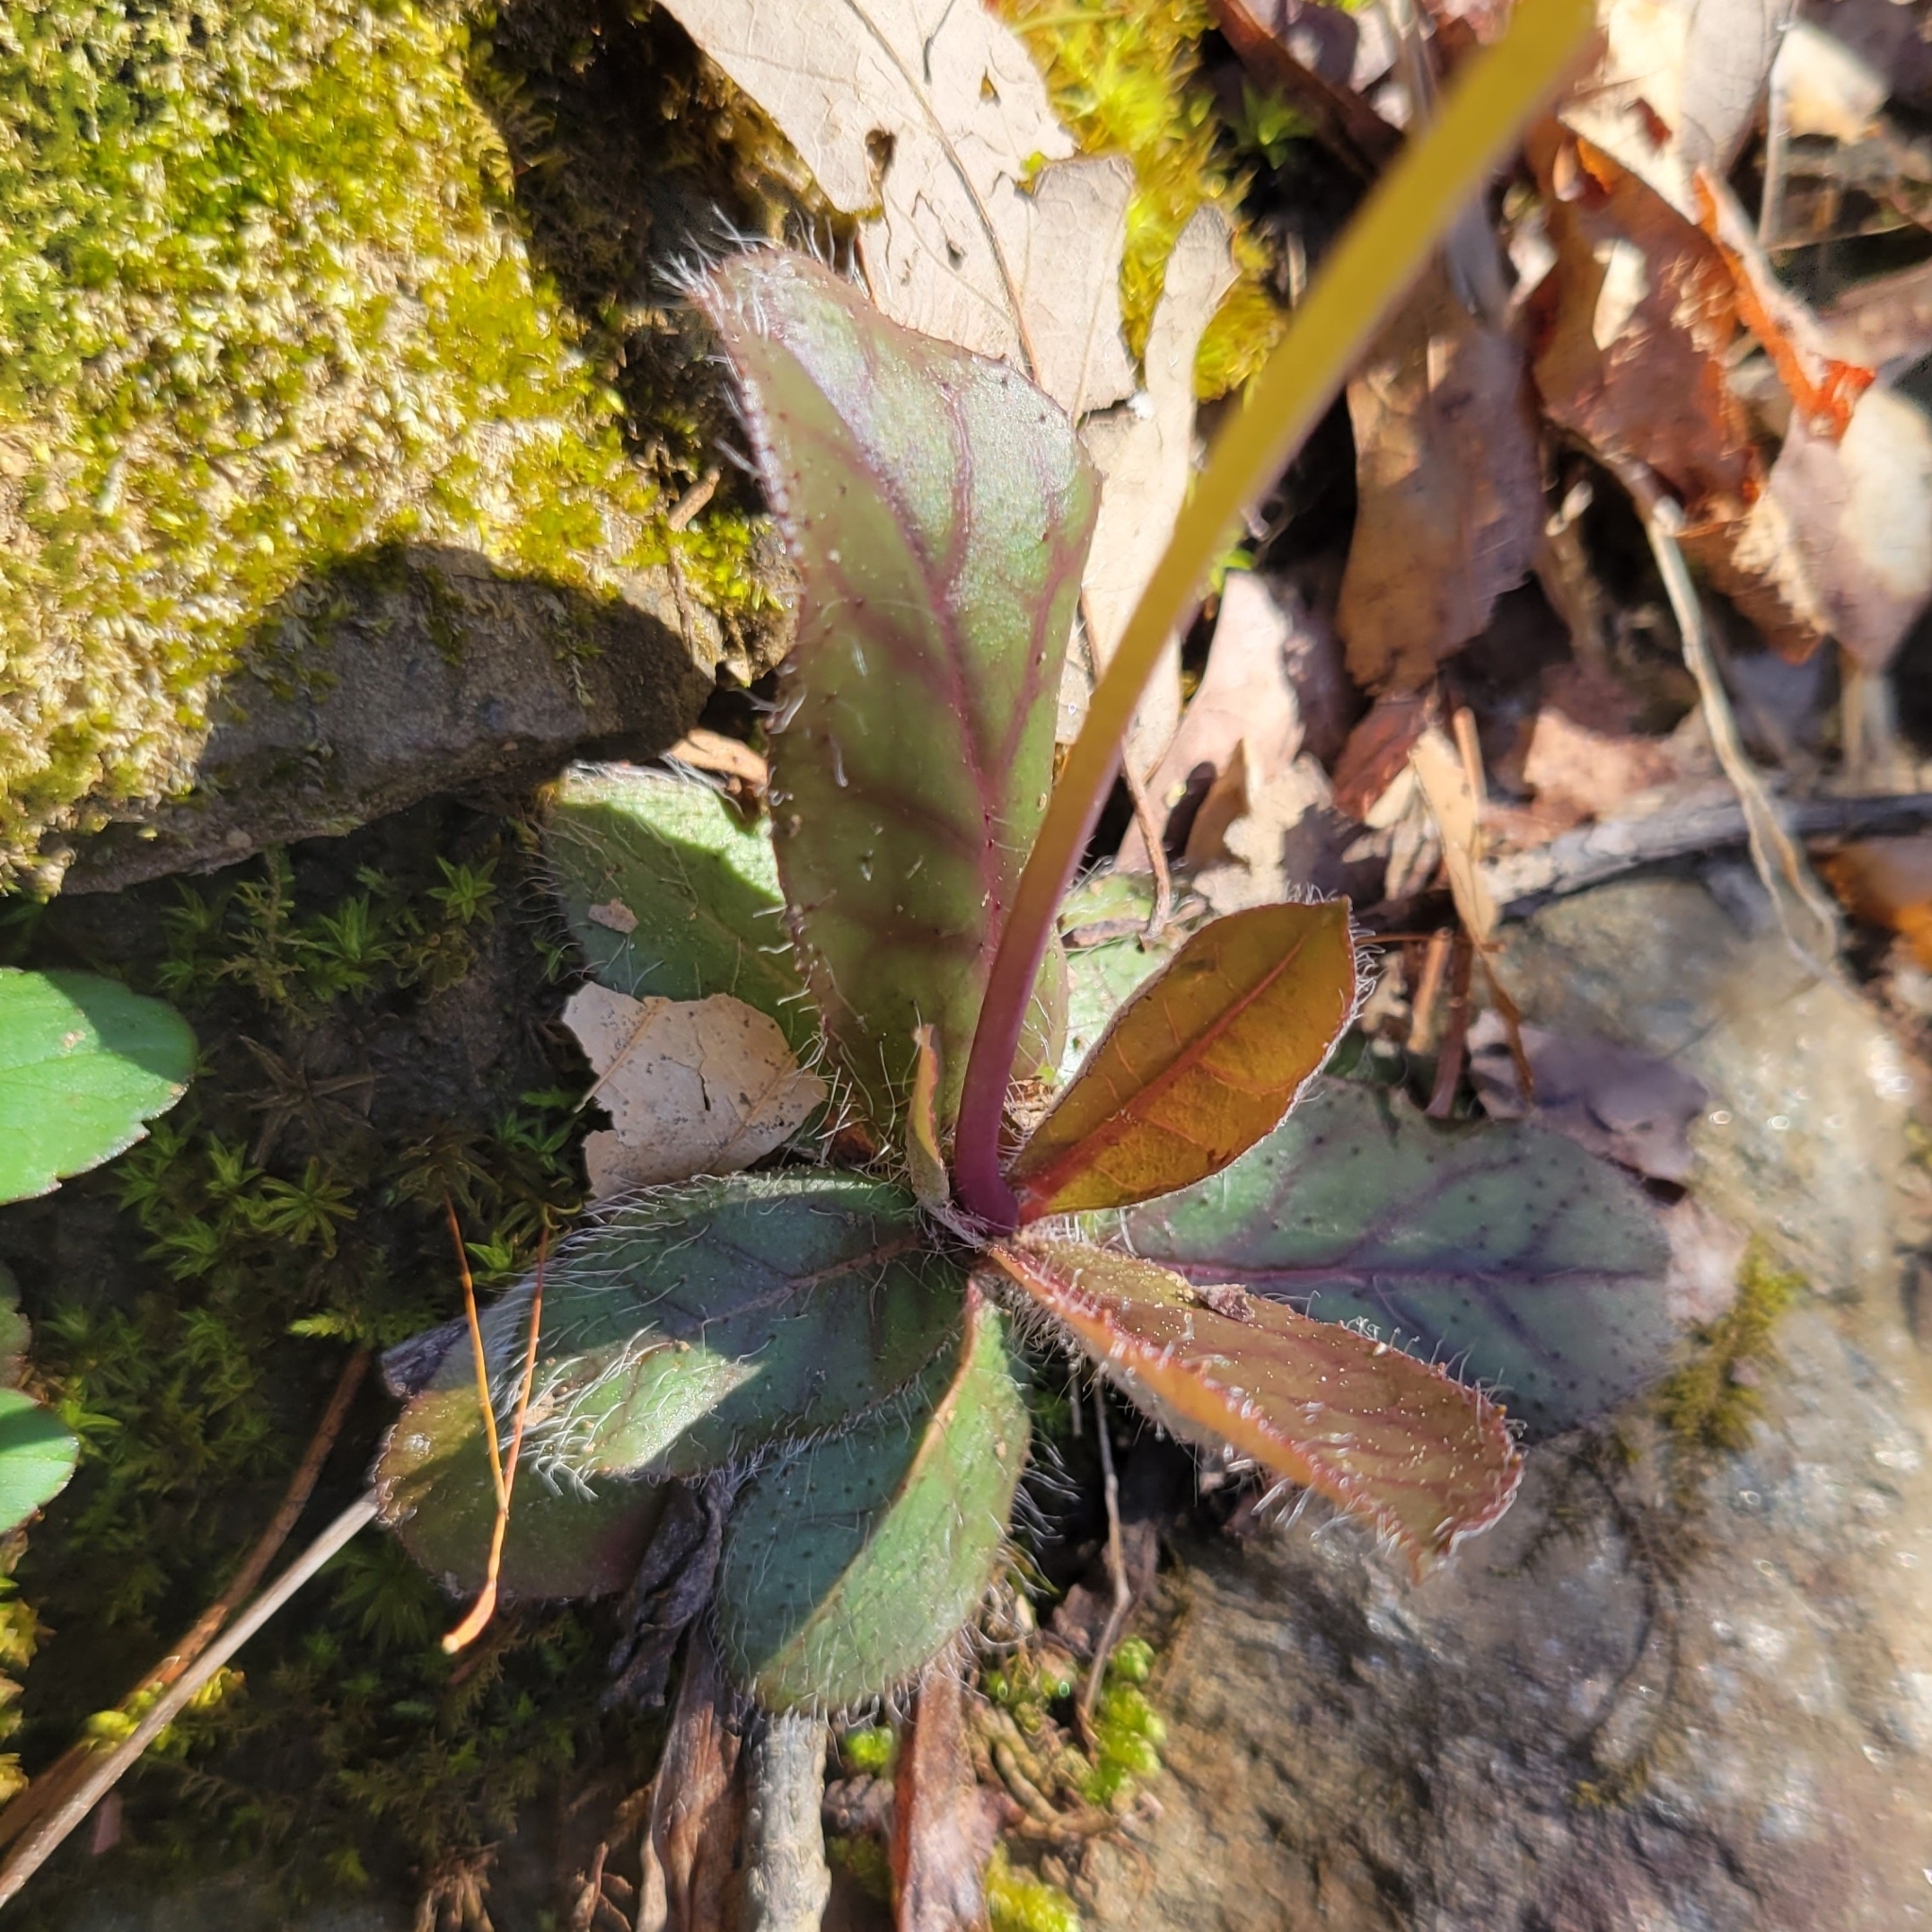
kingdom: Plantae
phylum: Tracheophyta
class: Magnoliopsida
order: Asterales
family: Asteraceae
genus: Hieracium
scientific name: Hieracium venosum
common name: Rattlesnake hawkweed
